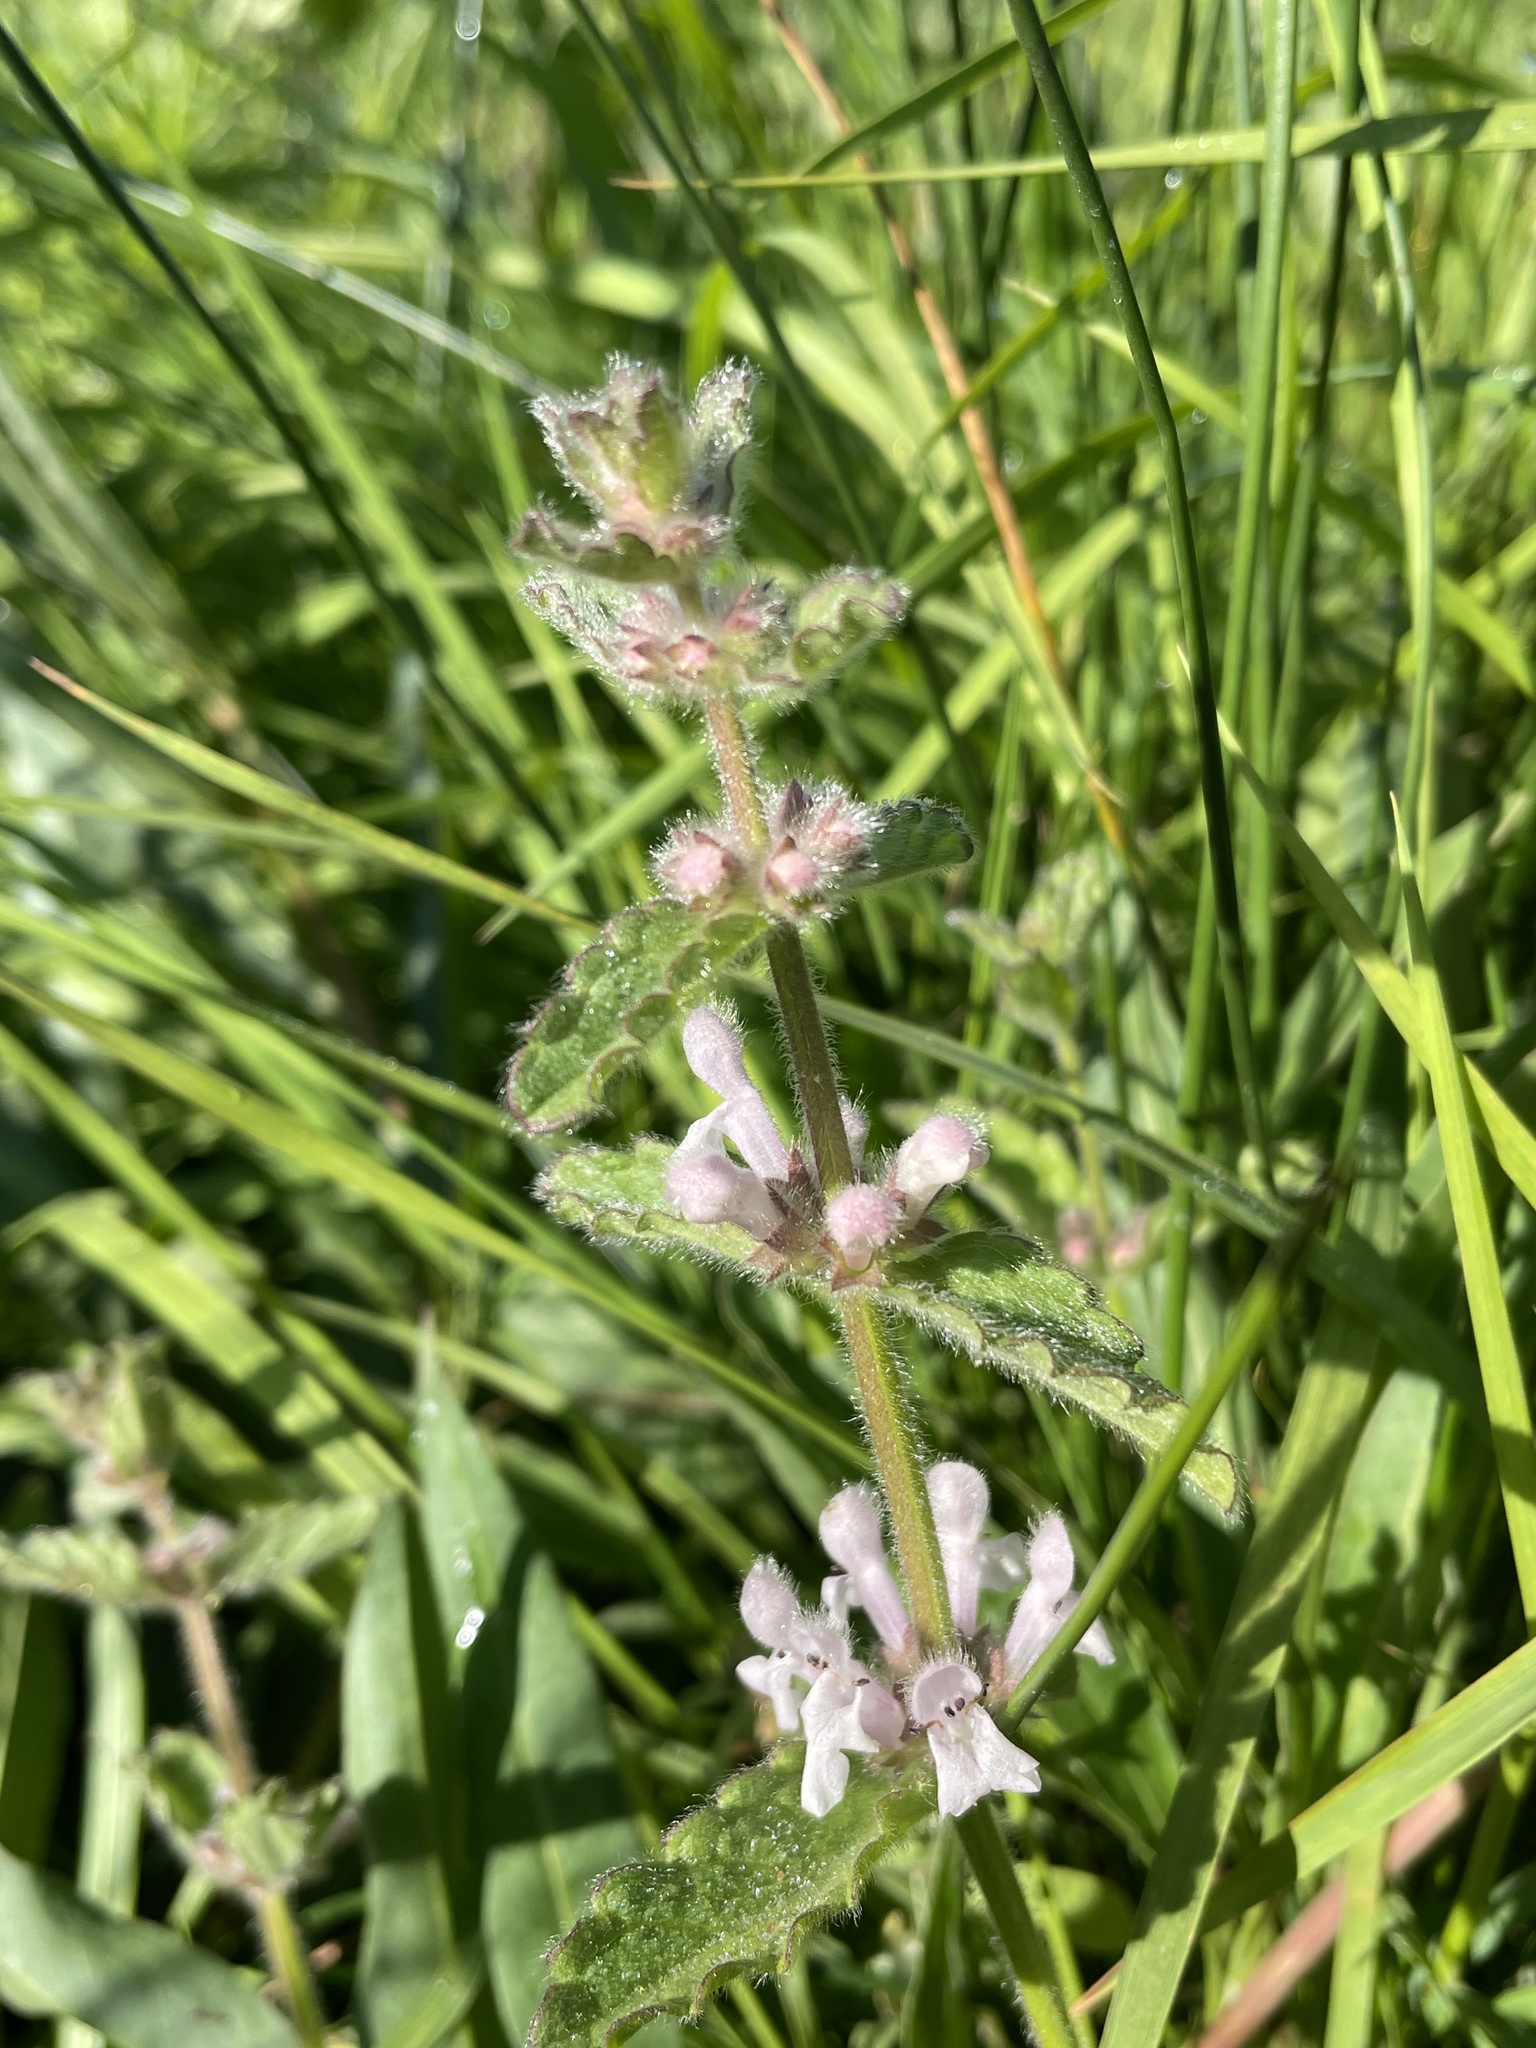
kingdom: Plantae
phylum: Tracheophyta
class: Magnoliopsida
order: Lamiales
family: Lamiaceae
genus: Stachys
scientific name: Stachys ajugoides
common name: Hedge-nettle
